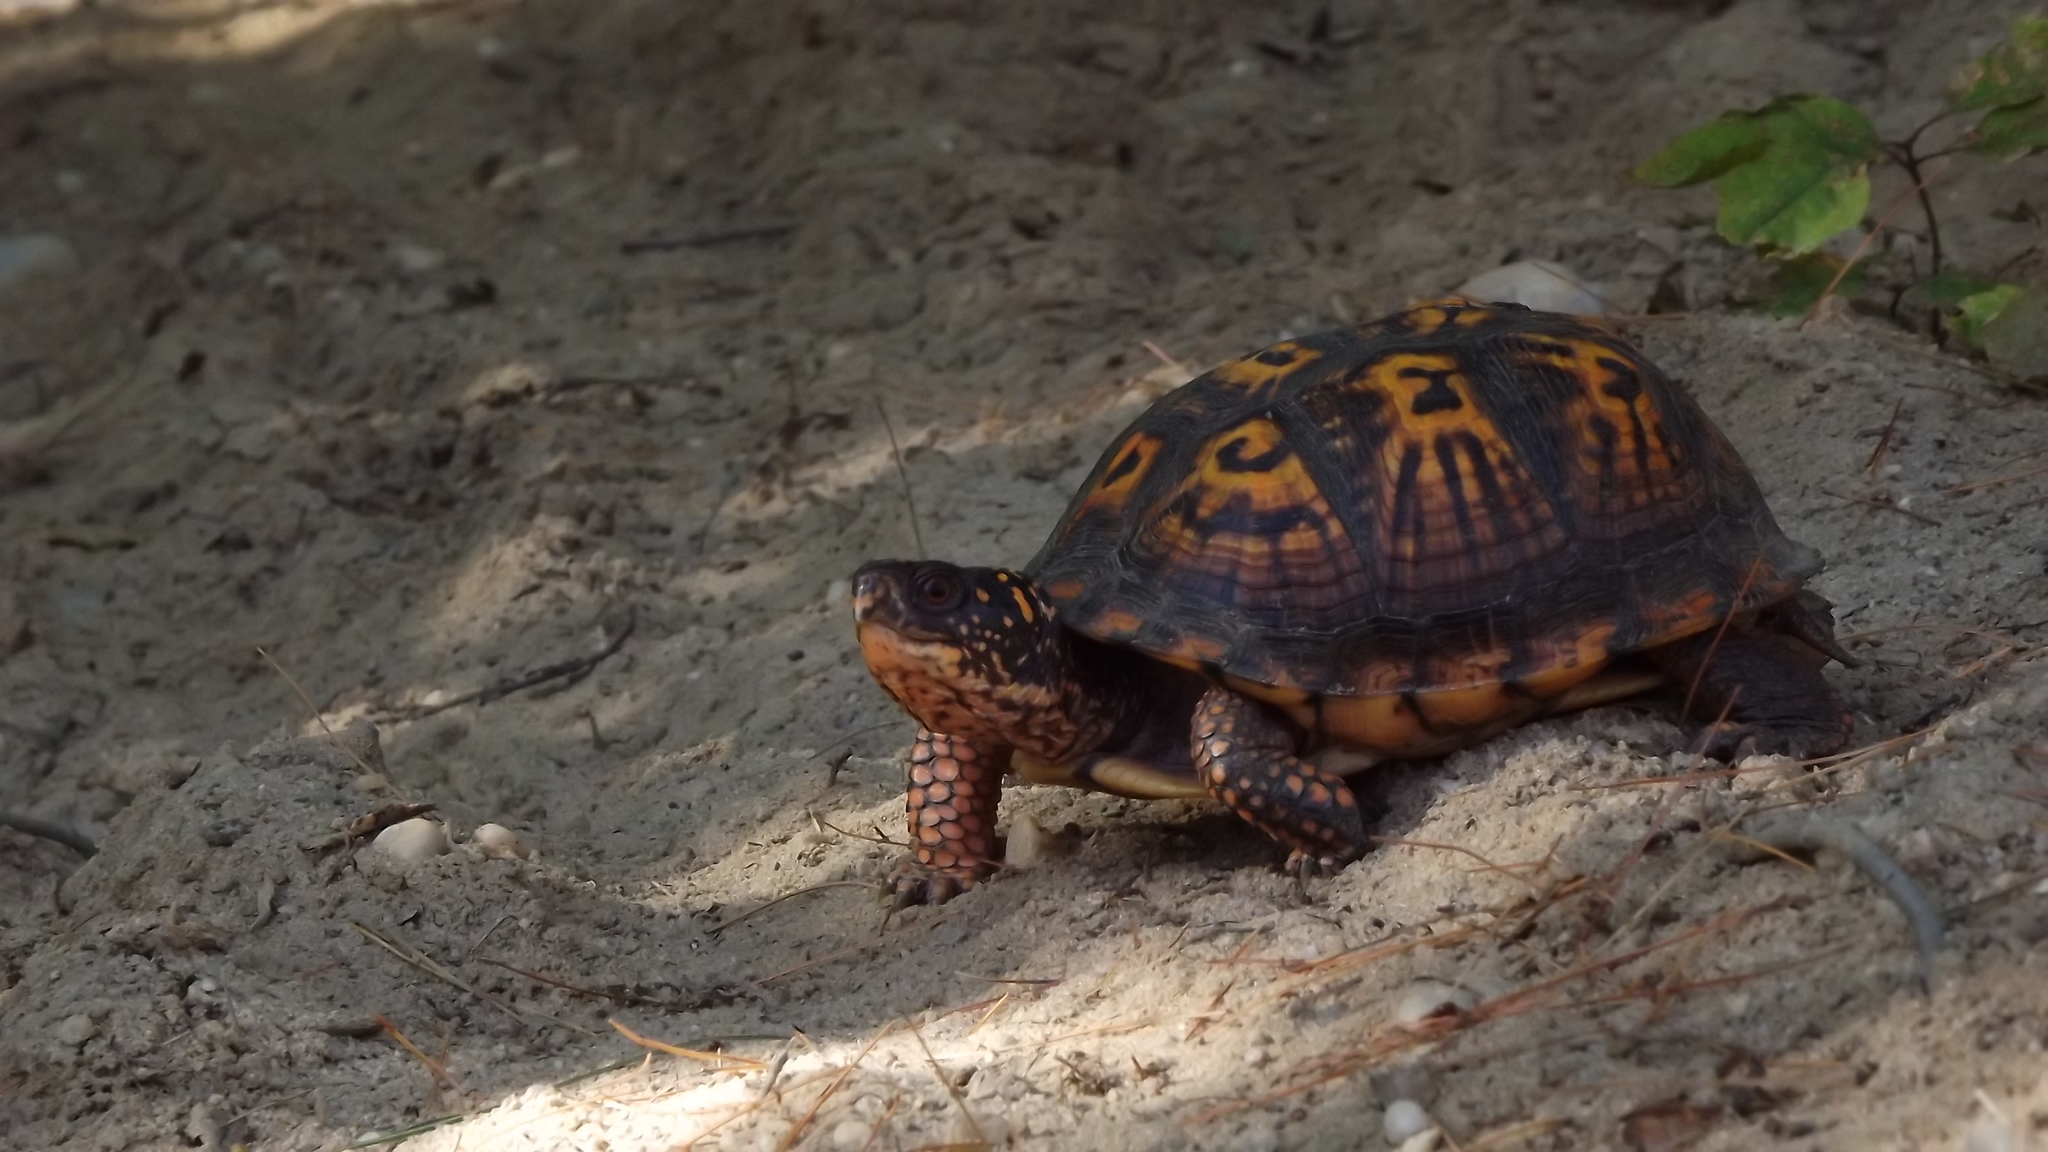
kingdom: Animalia
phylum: Chordata
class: Testudines
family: Emydidae
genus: Terrapene
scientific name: Terrapene carolina
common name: Common box turtle
